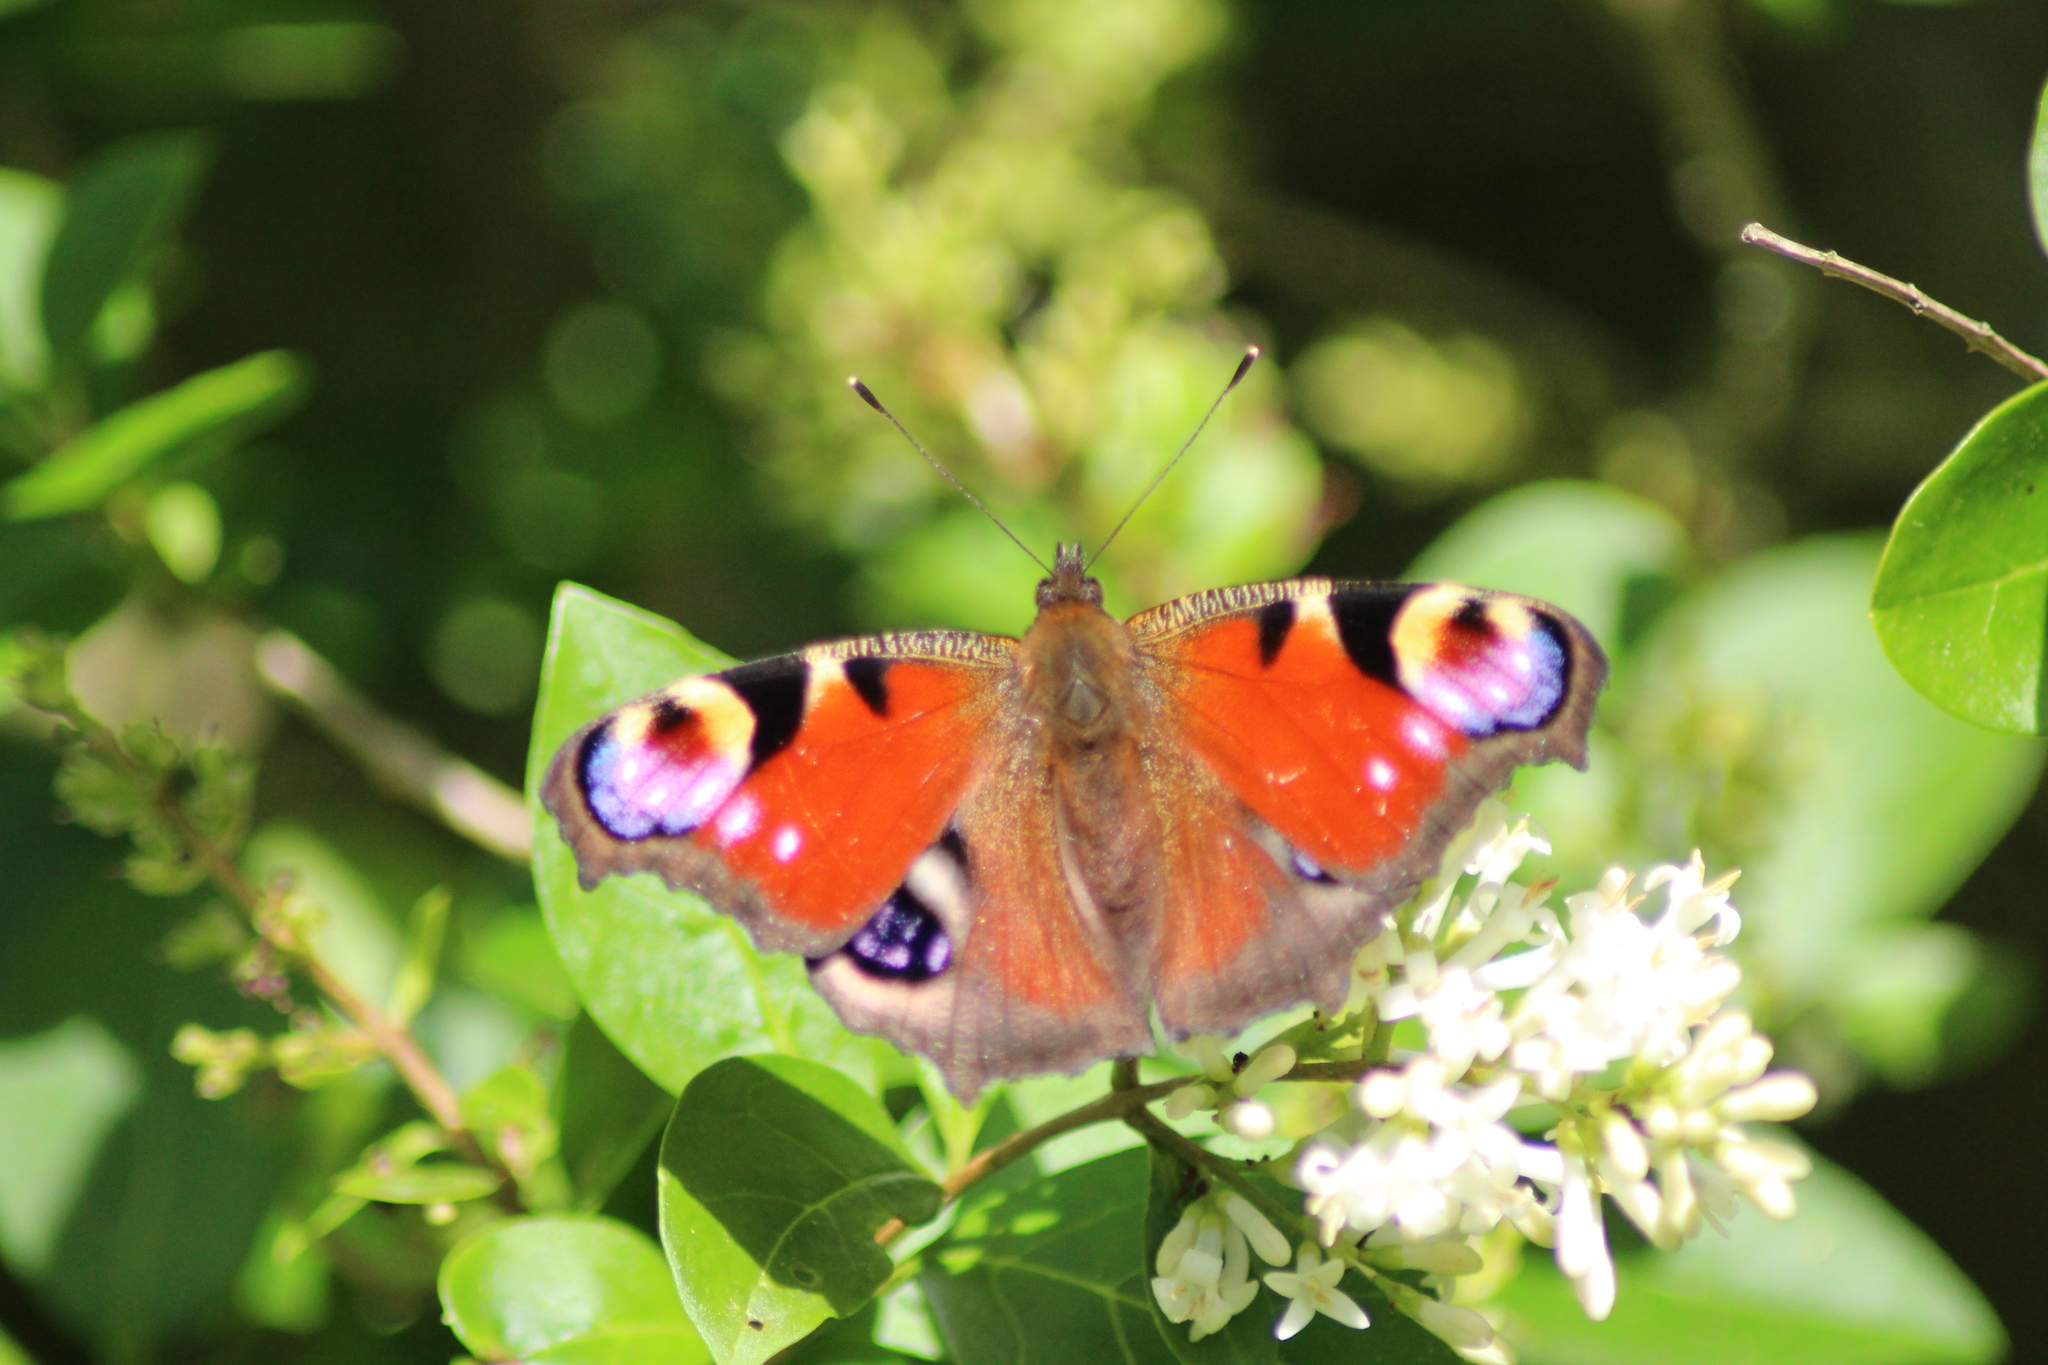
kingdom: Animalia
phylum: Arthropoda
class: Insecta
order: Lepidoptera
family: Nymphalidae
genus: Aglais
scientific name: Aglais io
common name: Peacock
